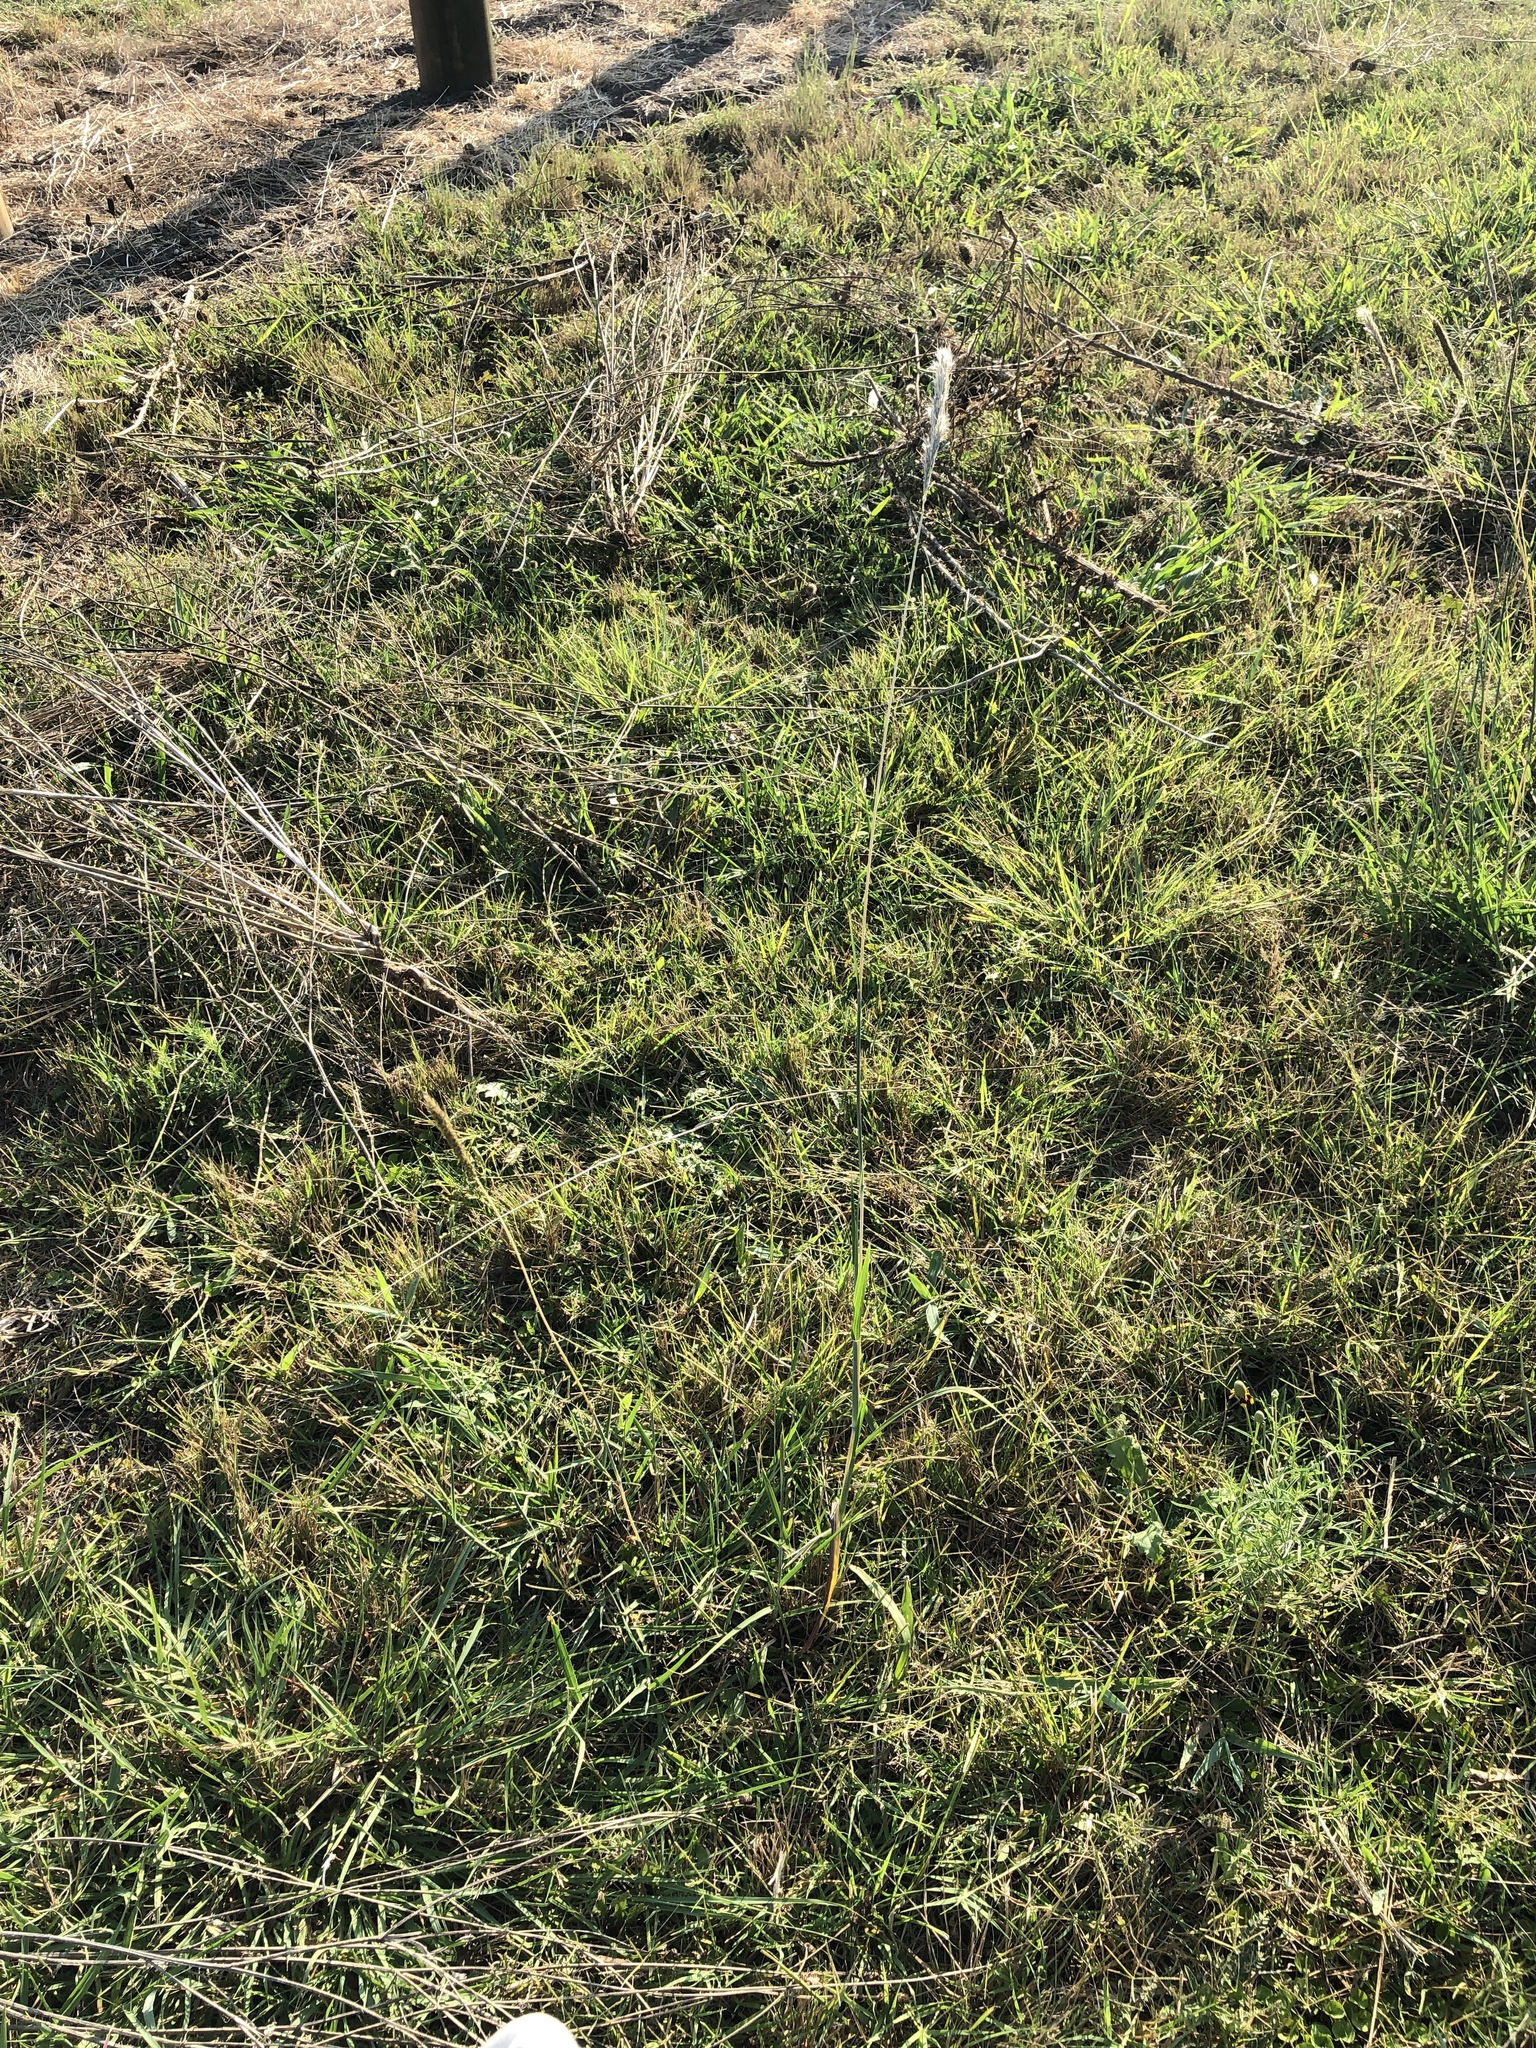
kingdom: Plantae
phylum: Tracheophyta
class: Liliopsida
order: Poales
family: Poaceae
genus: Bothriochloa
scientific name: Bothriochloa torreyana
